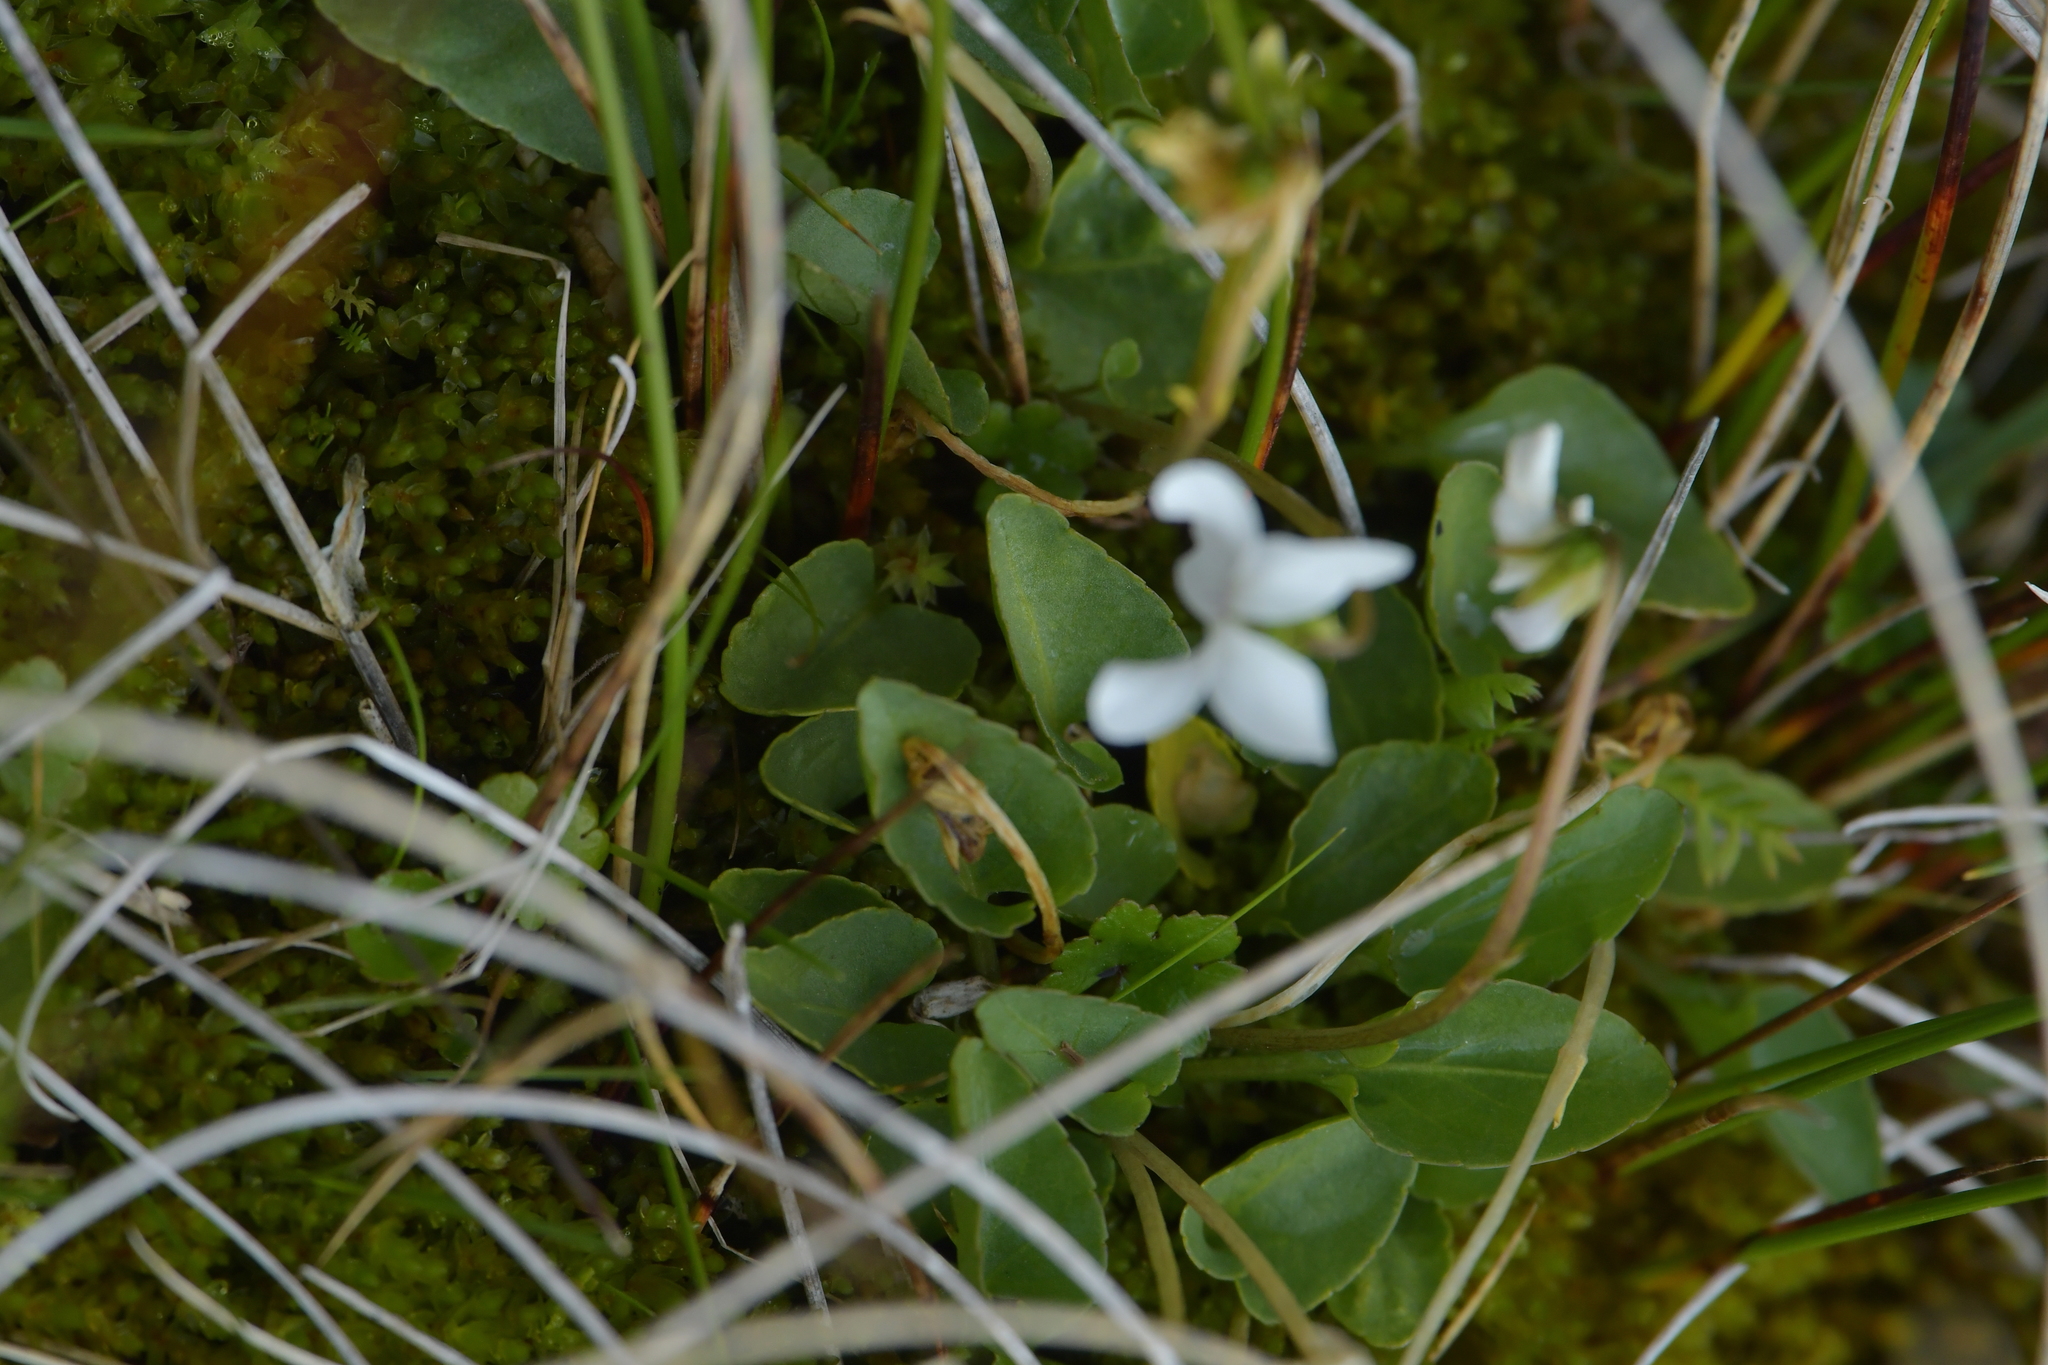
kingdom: Plantae
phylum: Tracheophyta
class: Magnoliopsida
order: Malpighiales
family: Violaceae
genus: Viola
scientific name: Viola cunninghamii
